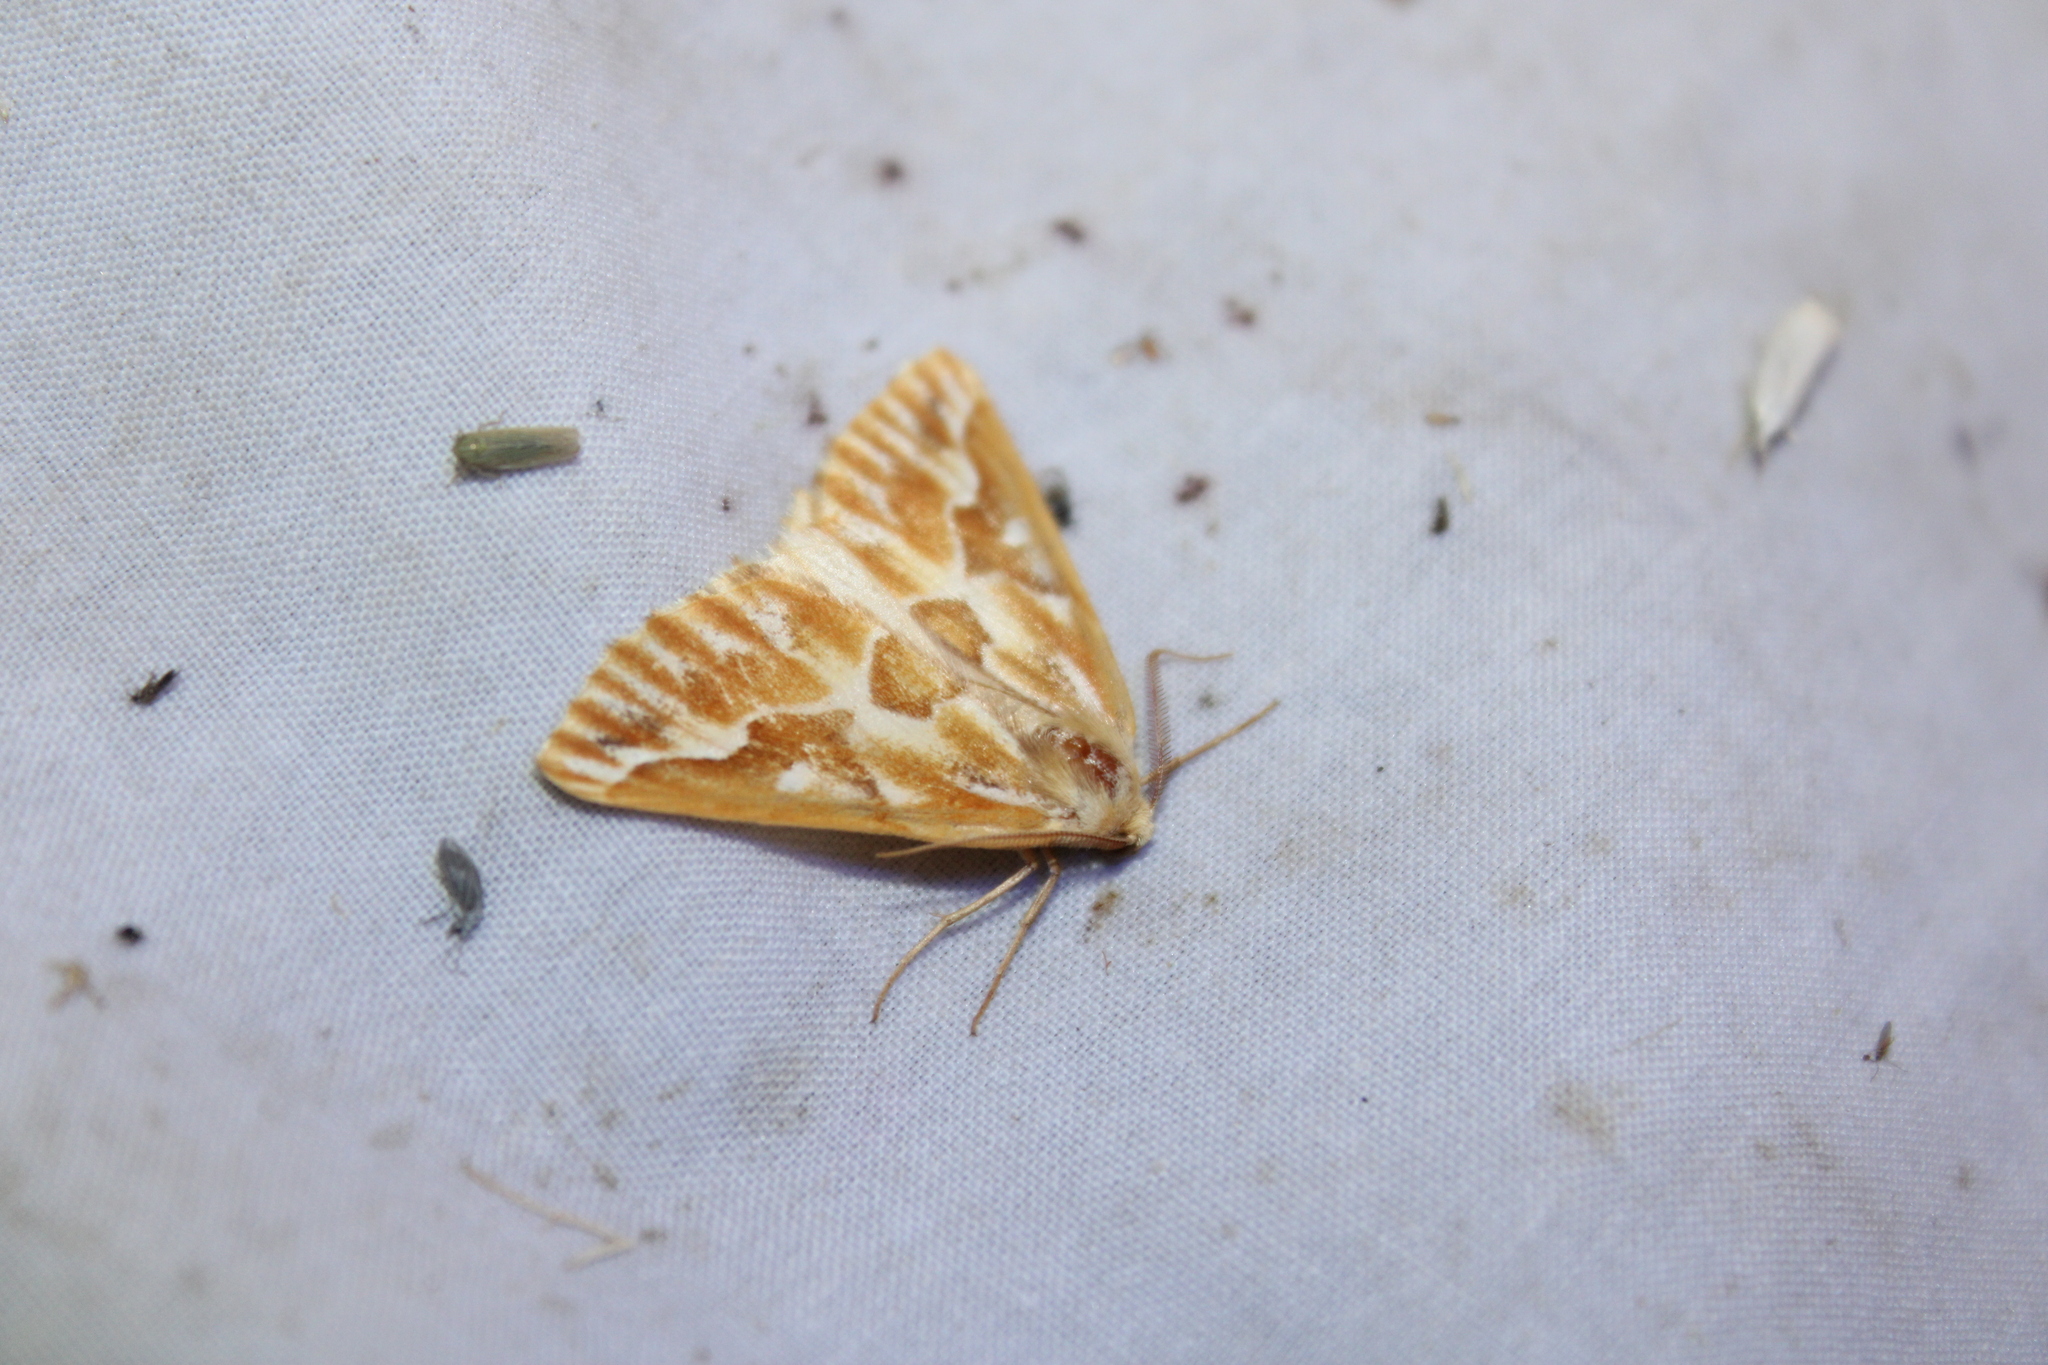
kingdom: Animalia
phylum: Arthropoda
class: Insecta
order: Lepidoptera
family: Geometridae
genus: Caripeta
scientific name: Caripeta piniata
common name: Northern pine looper moth
